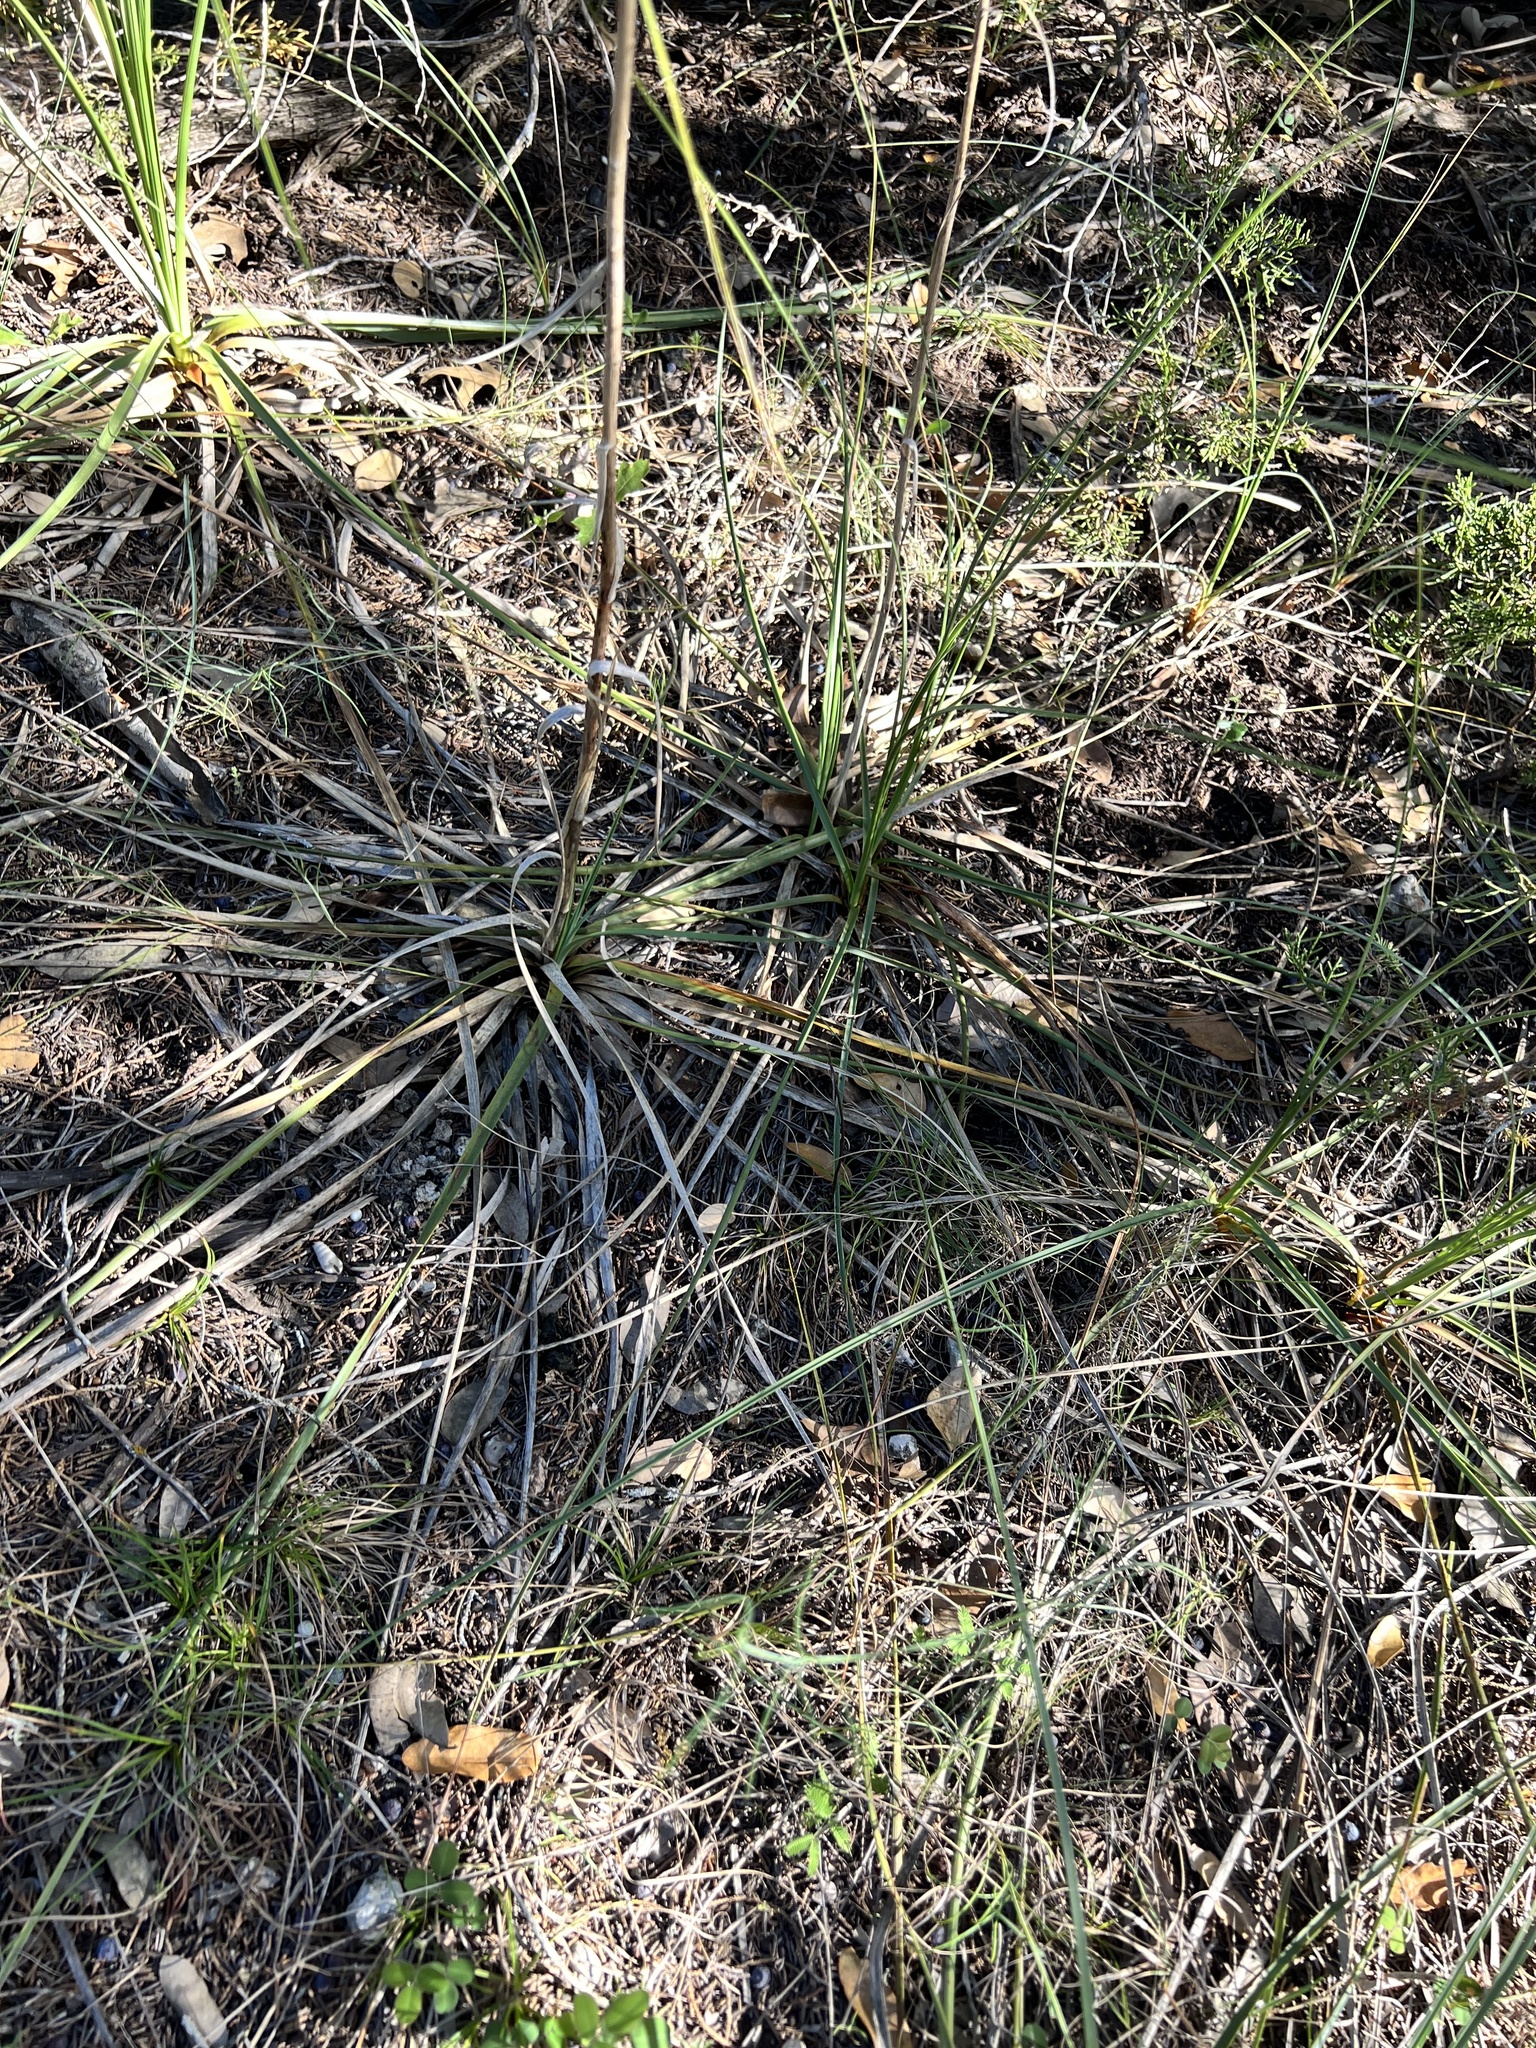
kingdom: Plantae
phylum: Tracheophyta
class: Liliopsida
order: Asparagales
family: Asparagaceae
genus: Nolina
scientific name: Nolina lindheimeriana
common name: Lindheimer's bear-grass
